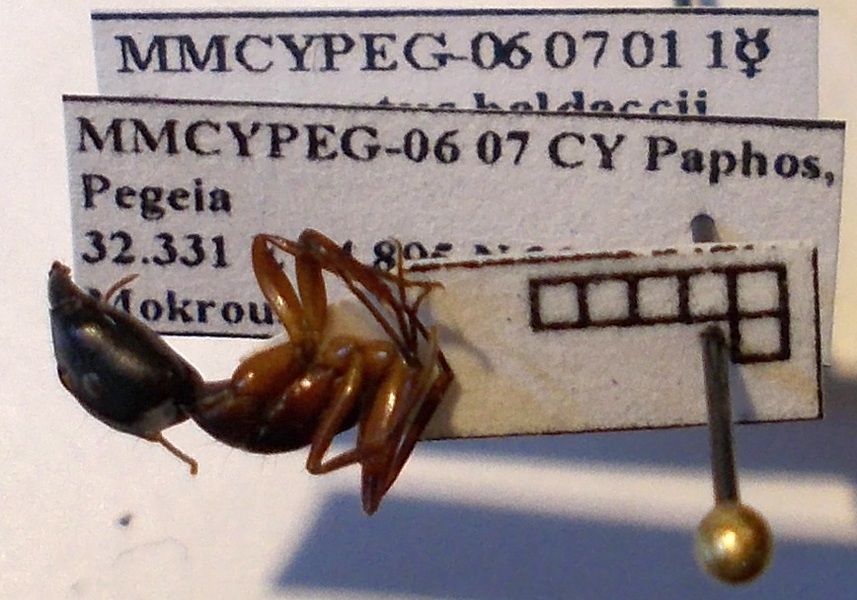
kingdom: Animalia
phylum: Arthropoda
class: Insecta
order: Hymenoptera
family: Formicidae
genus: Camponotus
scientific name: Camponotus baldaccii
